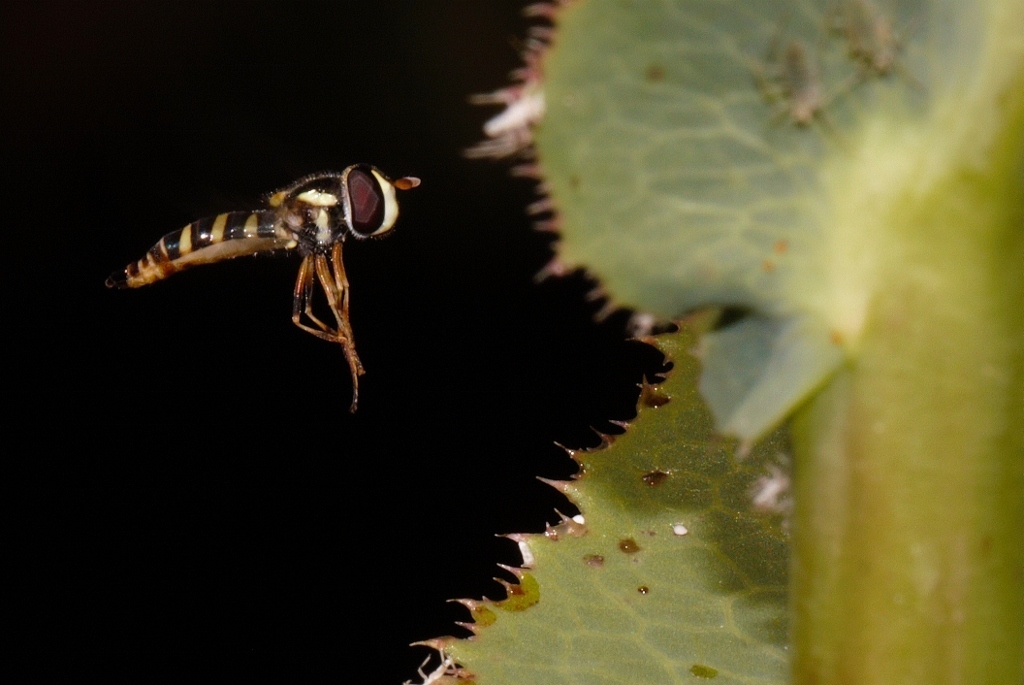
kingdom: Animalia
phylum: Arthropoda
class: Insecta
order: Diptera
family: Syrphidae
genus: Ischiodon
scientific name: Ischiodon aegyptius
